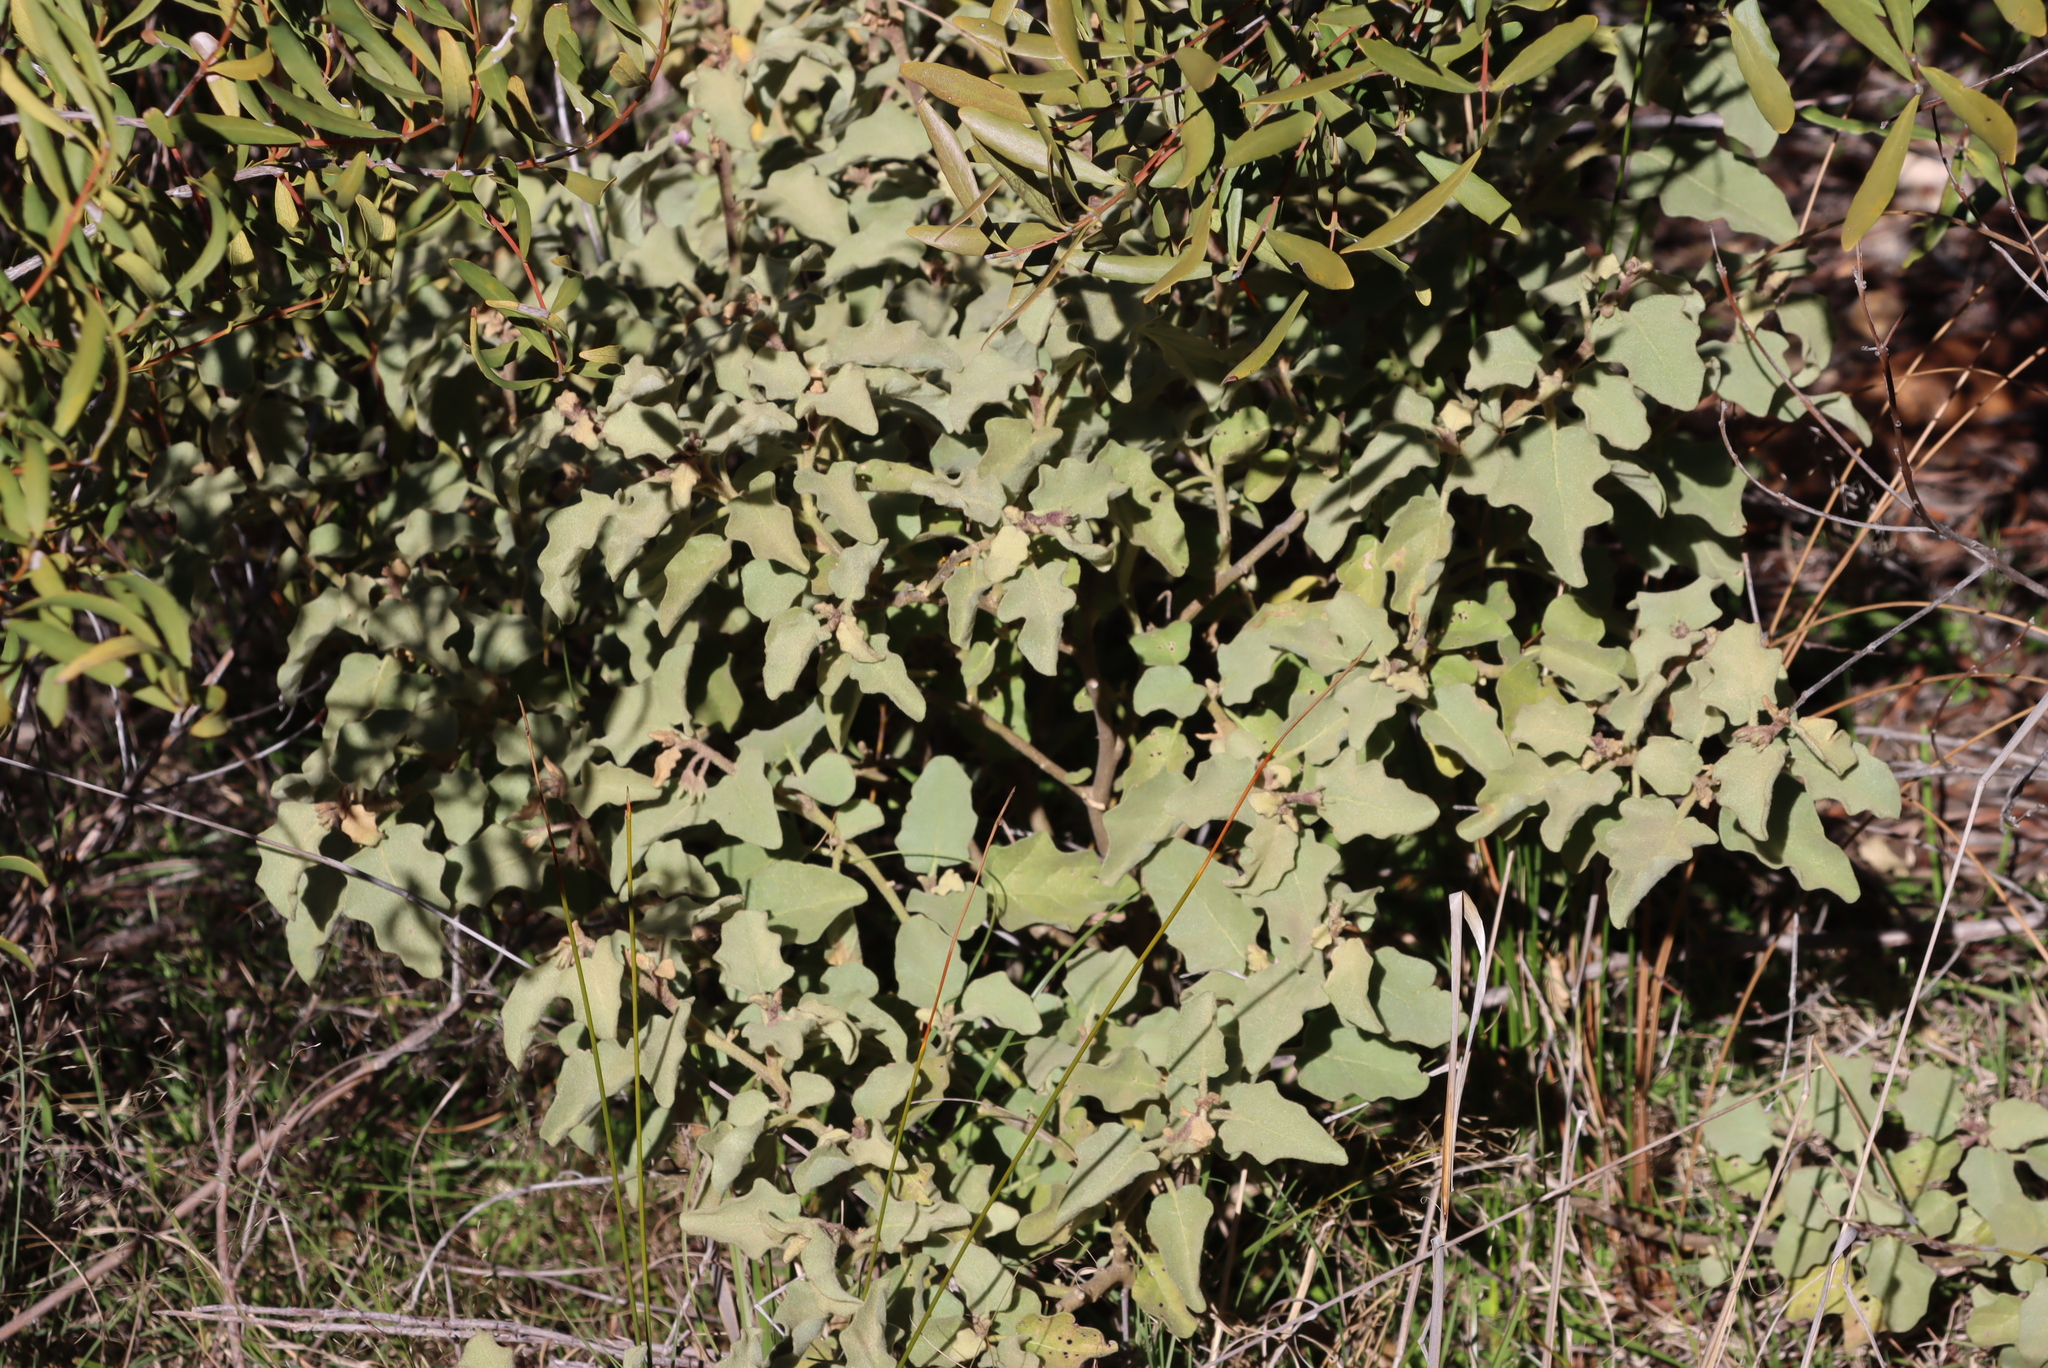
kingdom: Plantae
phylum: Tracheophyta
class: Magnoliopsida
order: Solanales
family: Solanaceae
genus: Solanum
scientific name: Solanum tomentosum
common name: Wild aubergine
